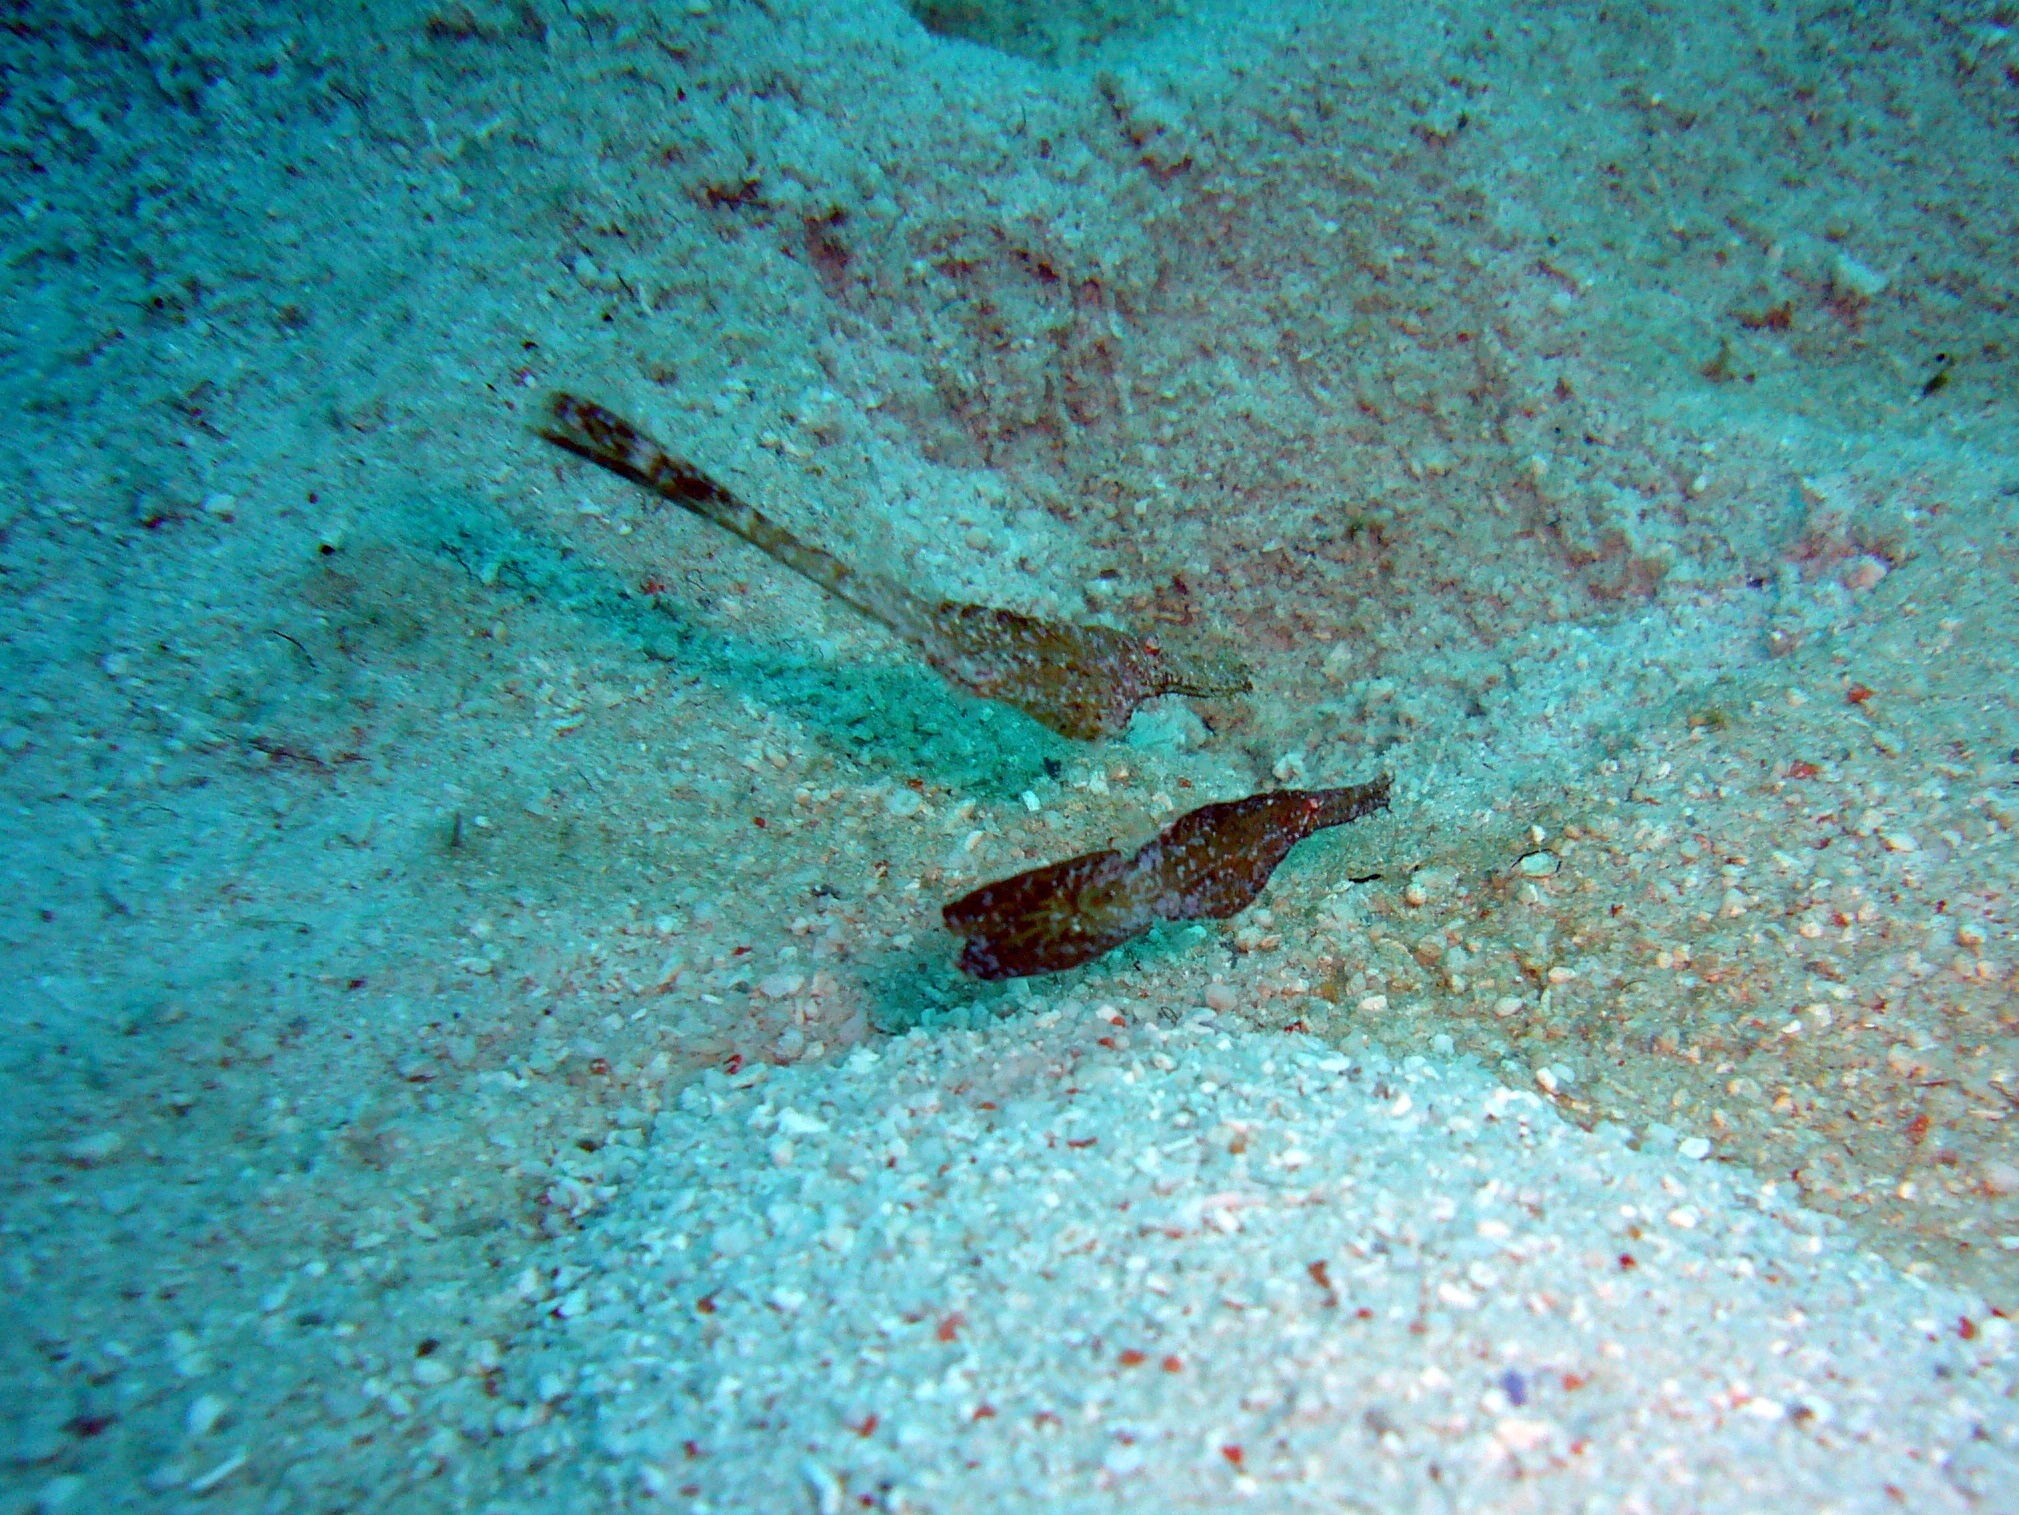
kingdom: Animalia
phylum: Chordata
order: Syngnathiformes
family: Solenostomidae
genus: Solenostomus
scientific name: Solenostomus cyanopterus
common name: Blue-finned ghost pipefish
